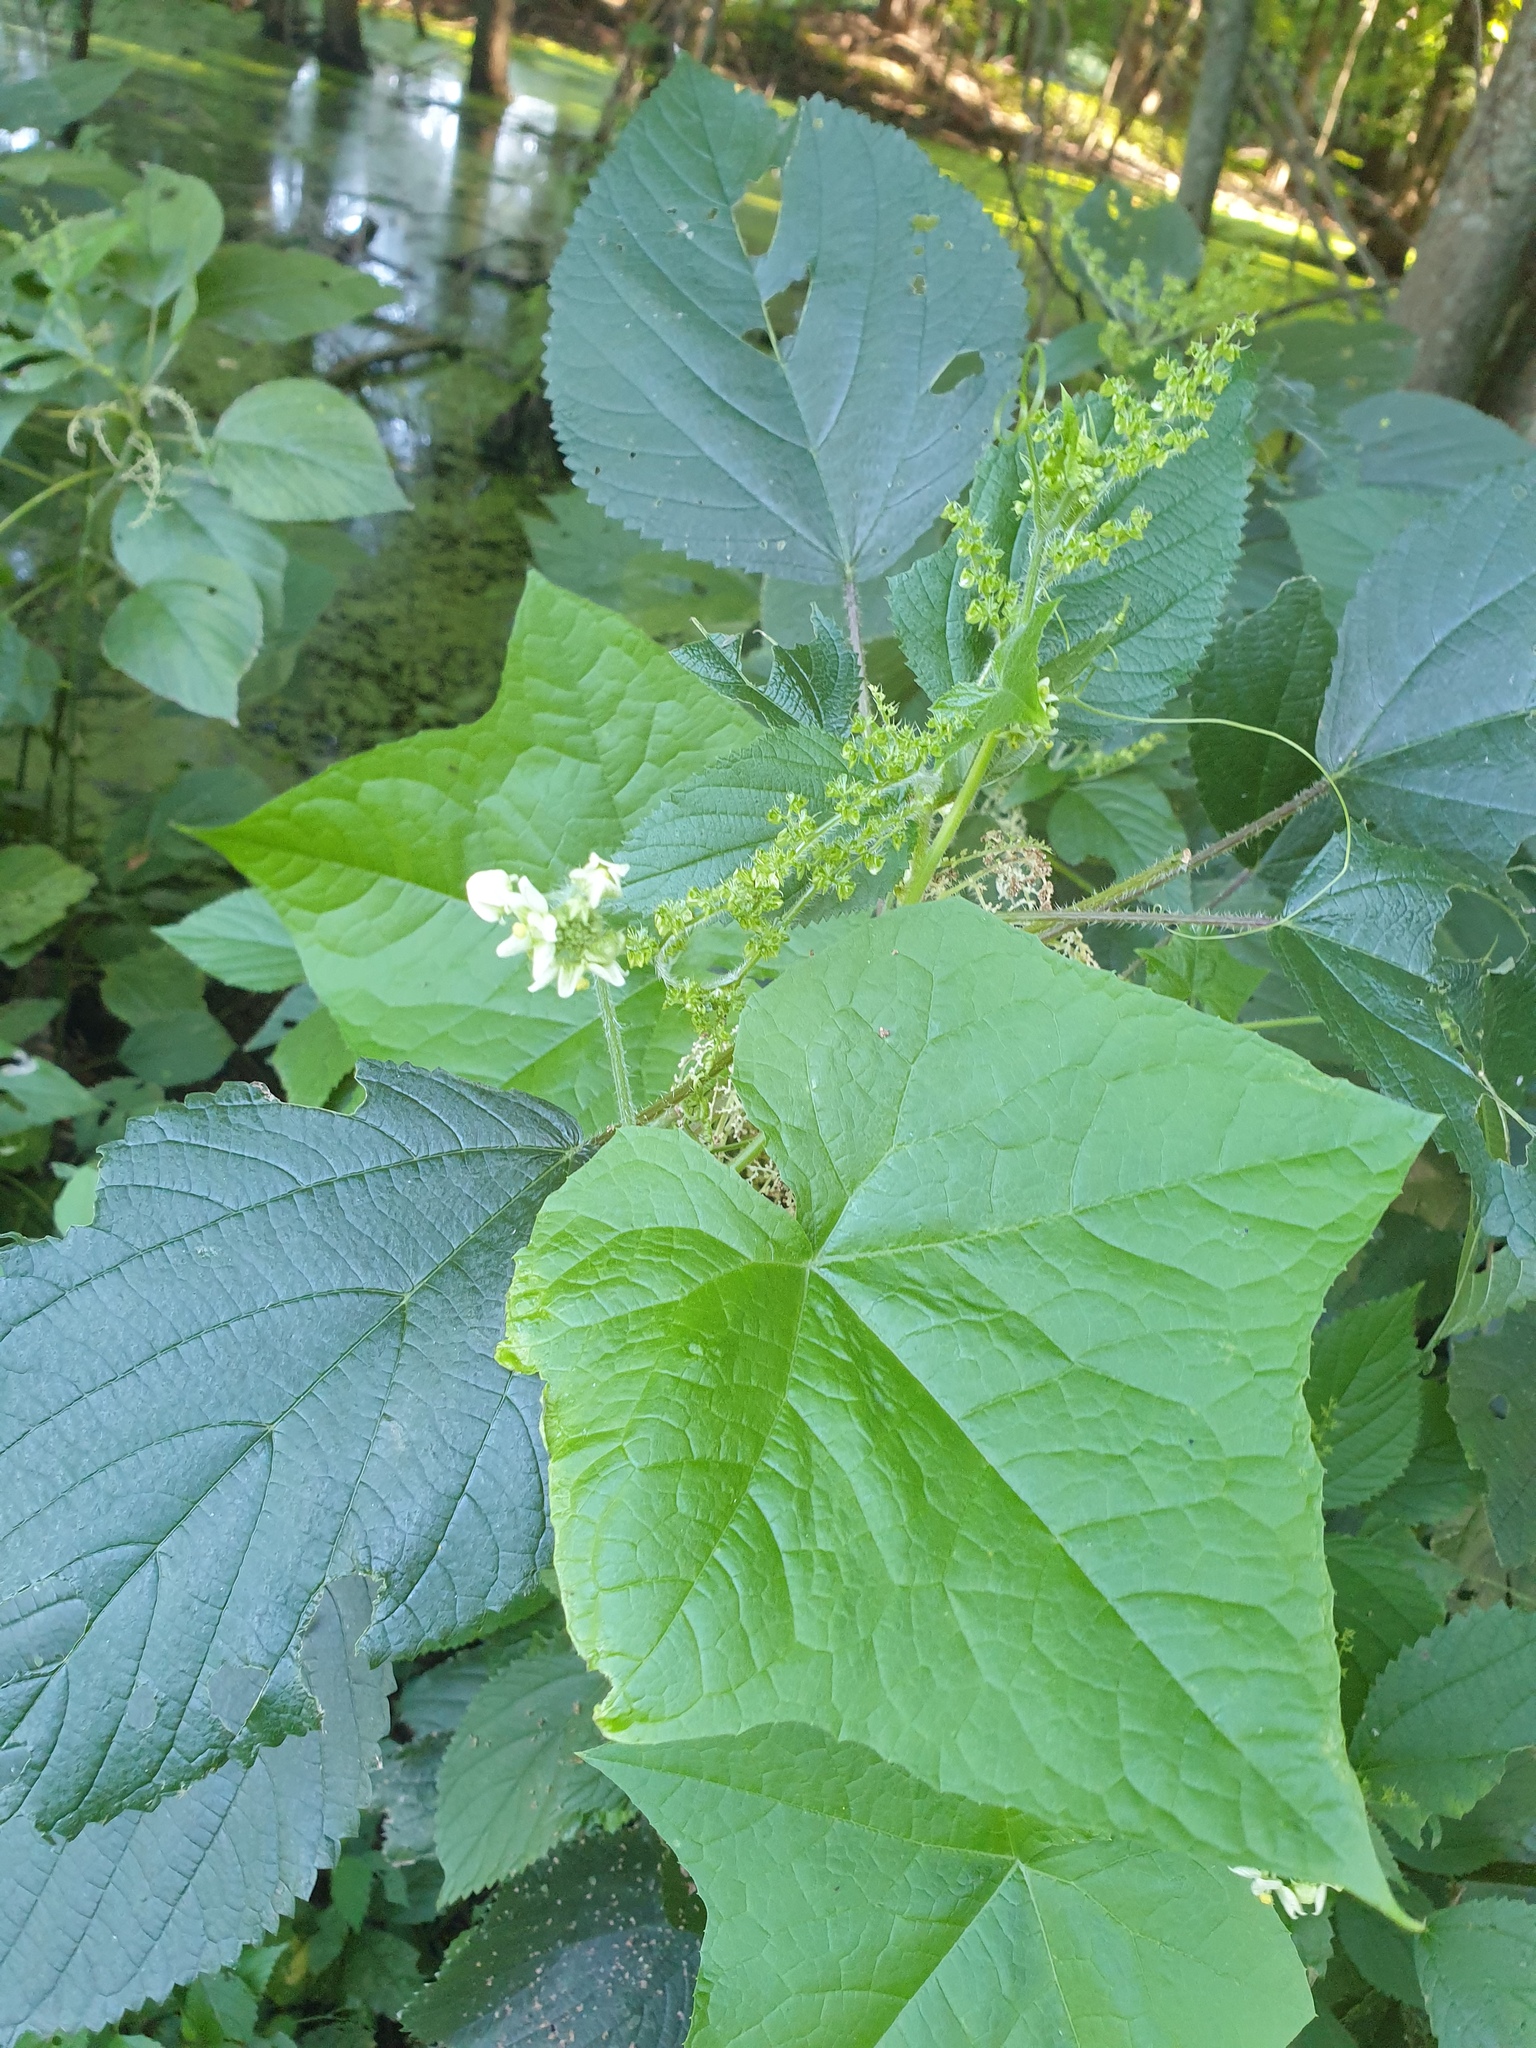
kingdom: Plantae
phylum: Tracheophyta
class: Magnoliopsida
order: Cucurbitales
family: Cucurbitaceae
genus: Sicyos
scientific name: Sicyos angulatus
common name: Angled burr cucumber
